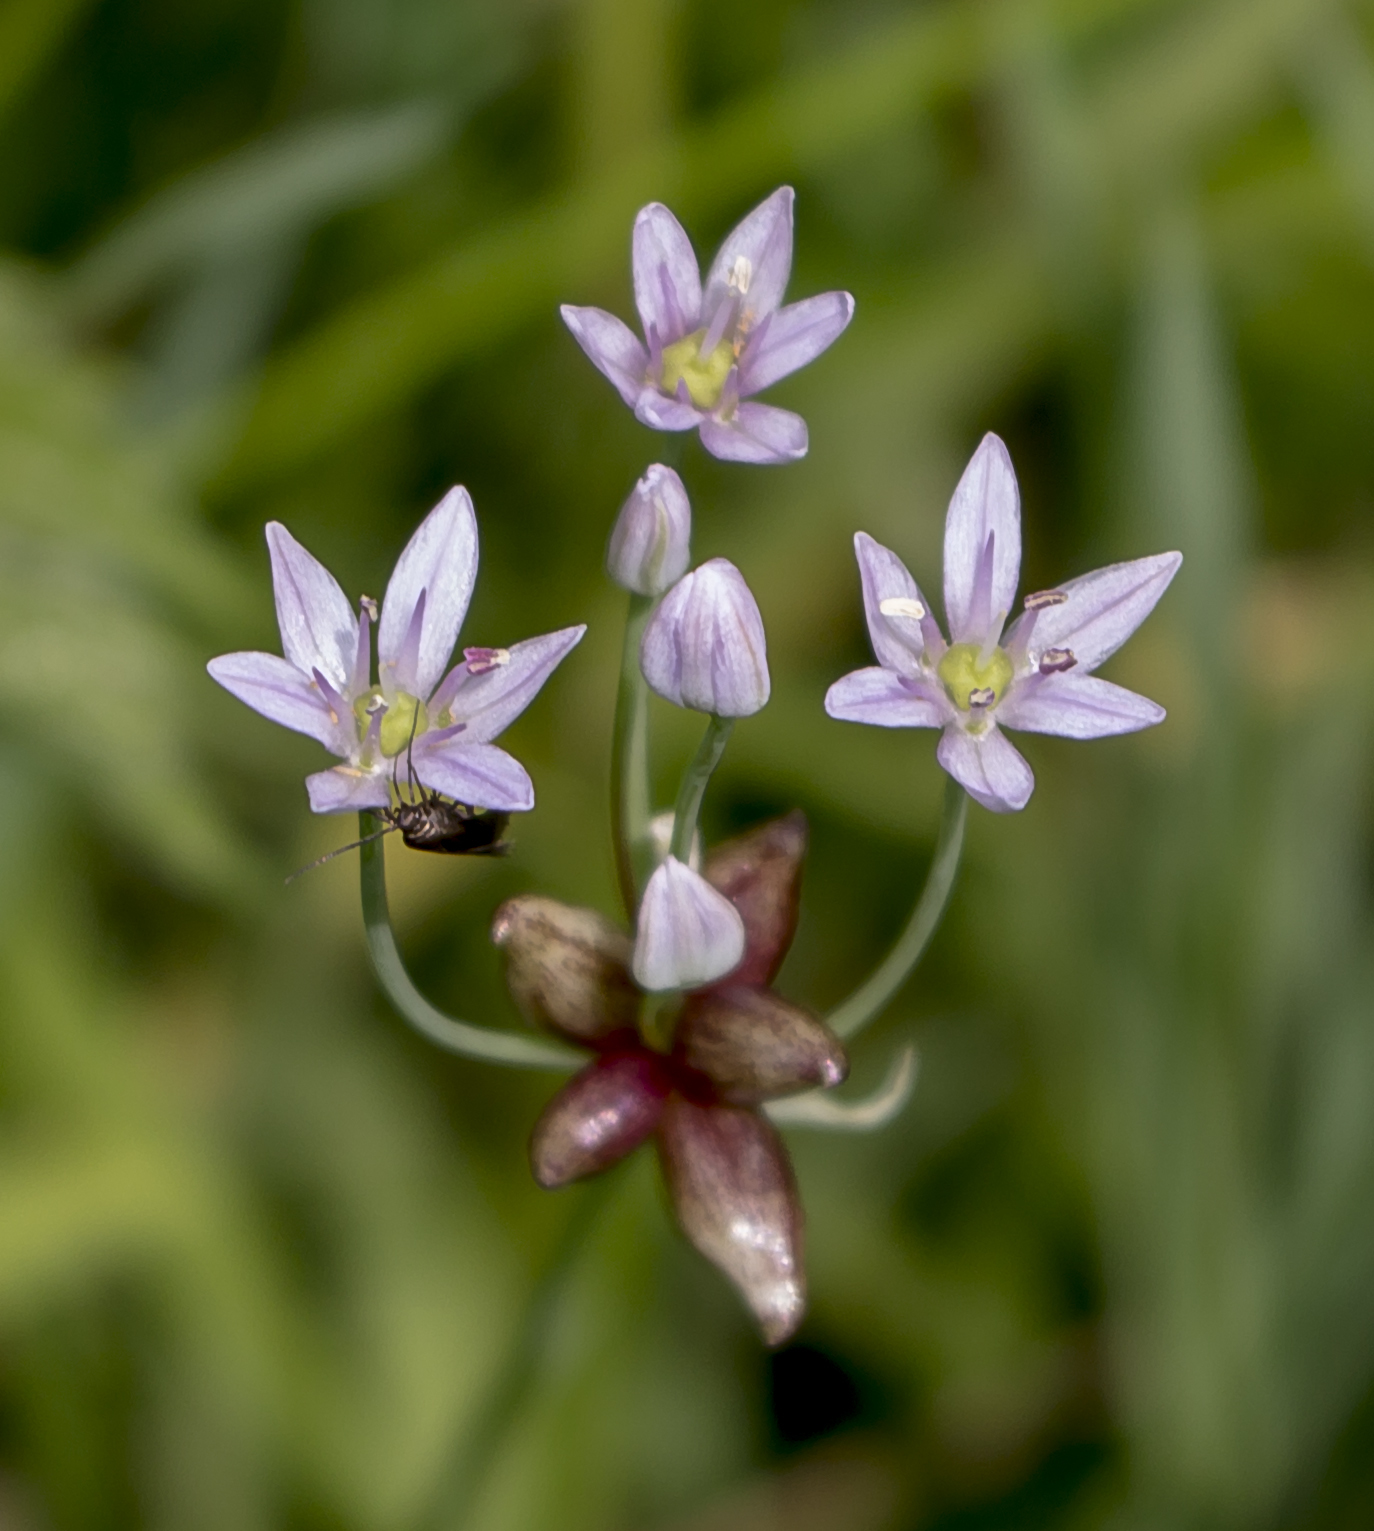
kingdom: Plantae
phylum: Tracheophyta
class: Liliopsida
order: Asparagales
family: Amaryllidaceae
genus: Allium
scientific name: Allium canadense
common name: Meadow garlic
